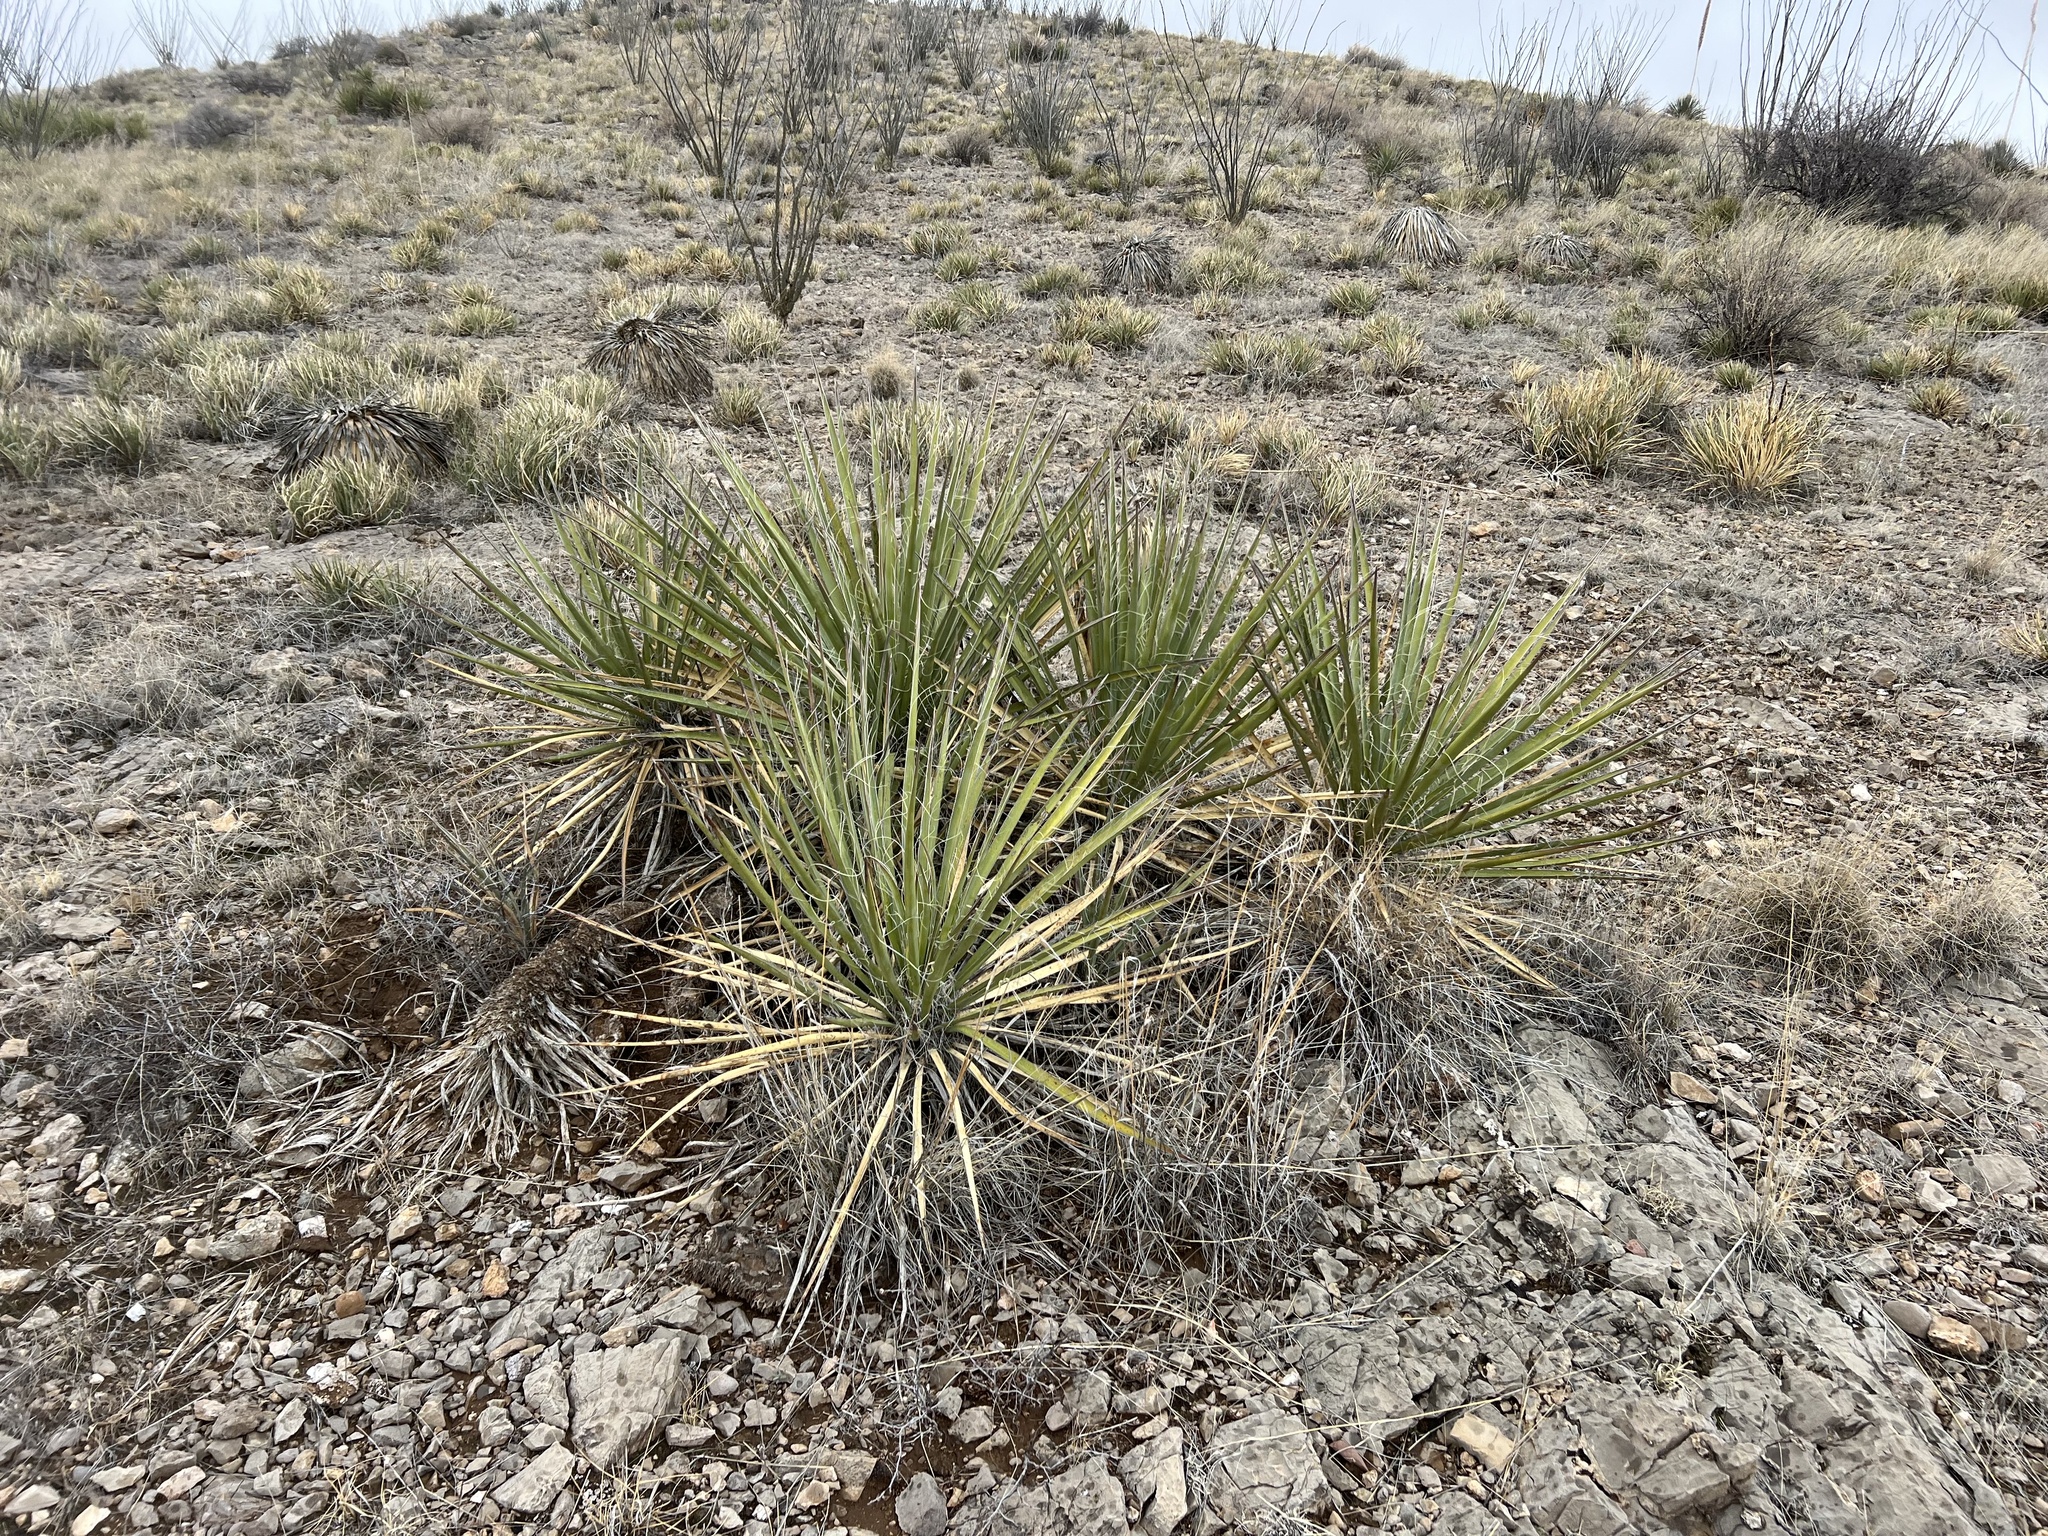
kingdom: Plantae
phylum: Tracheophyta
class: Liliopsida
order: Asparagales
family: Asparagaceae
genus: Yucca
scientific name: Yucca baccata
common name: Banana yucca
